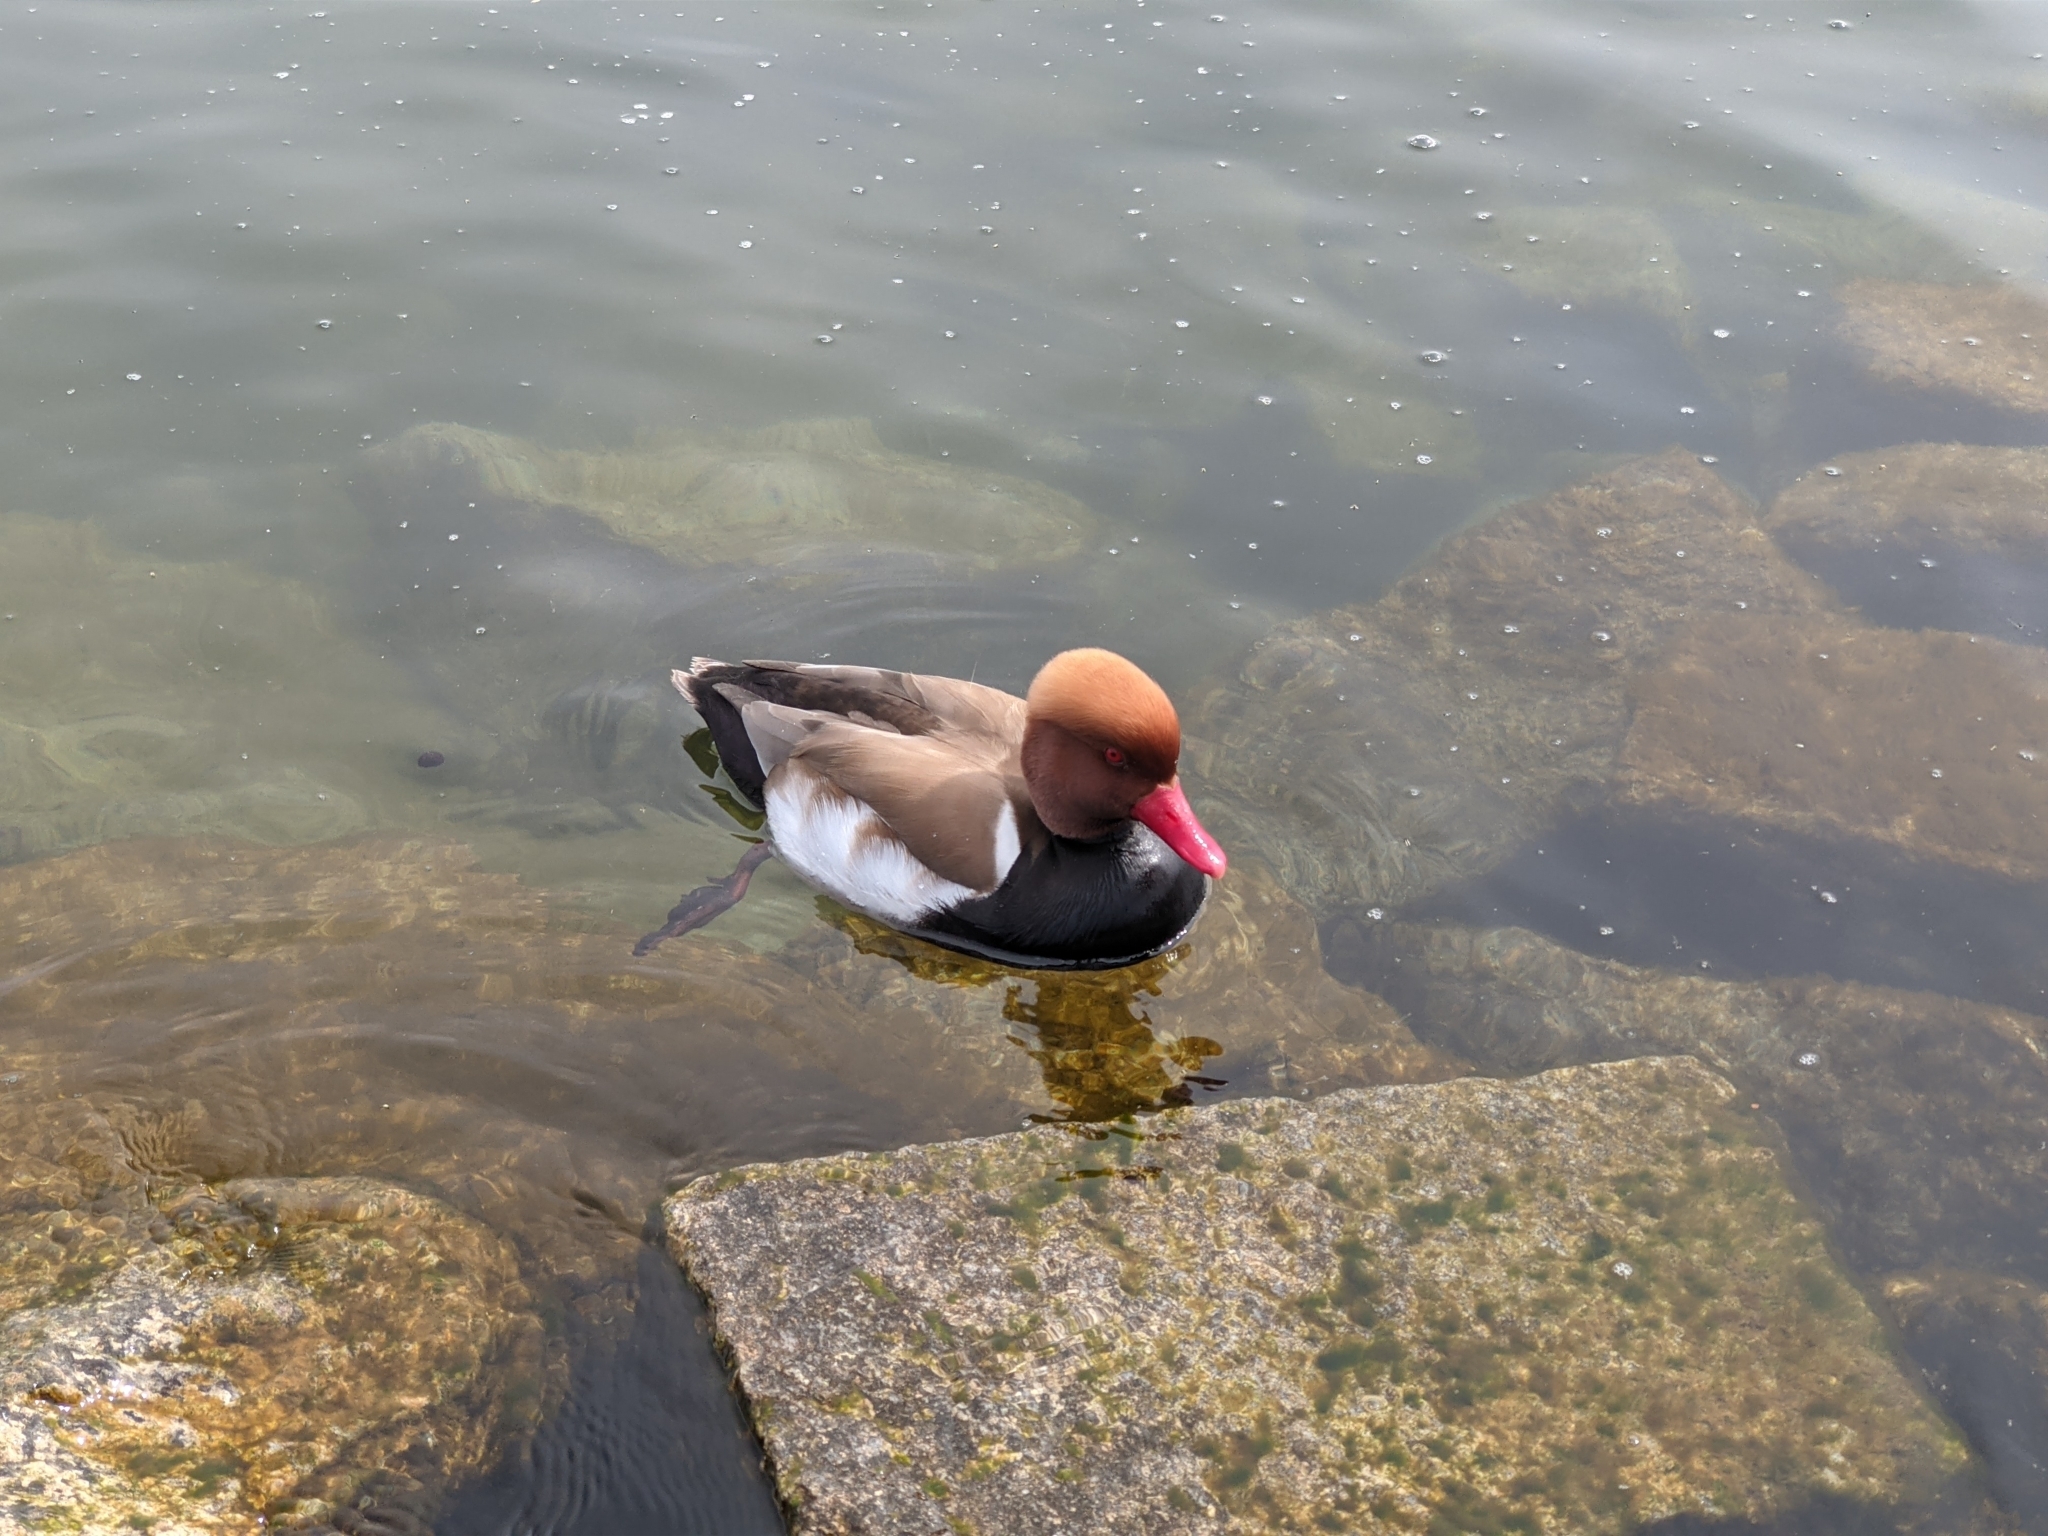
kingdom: Animalia
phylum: Chordata
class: Aves
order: Anseriformes
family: Anatidae
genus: Netta
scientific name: Netta rufina
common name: Red-crested pochard
